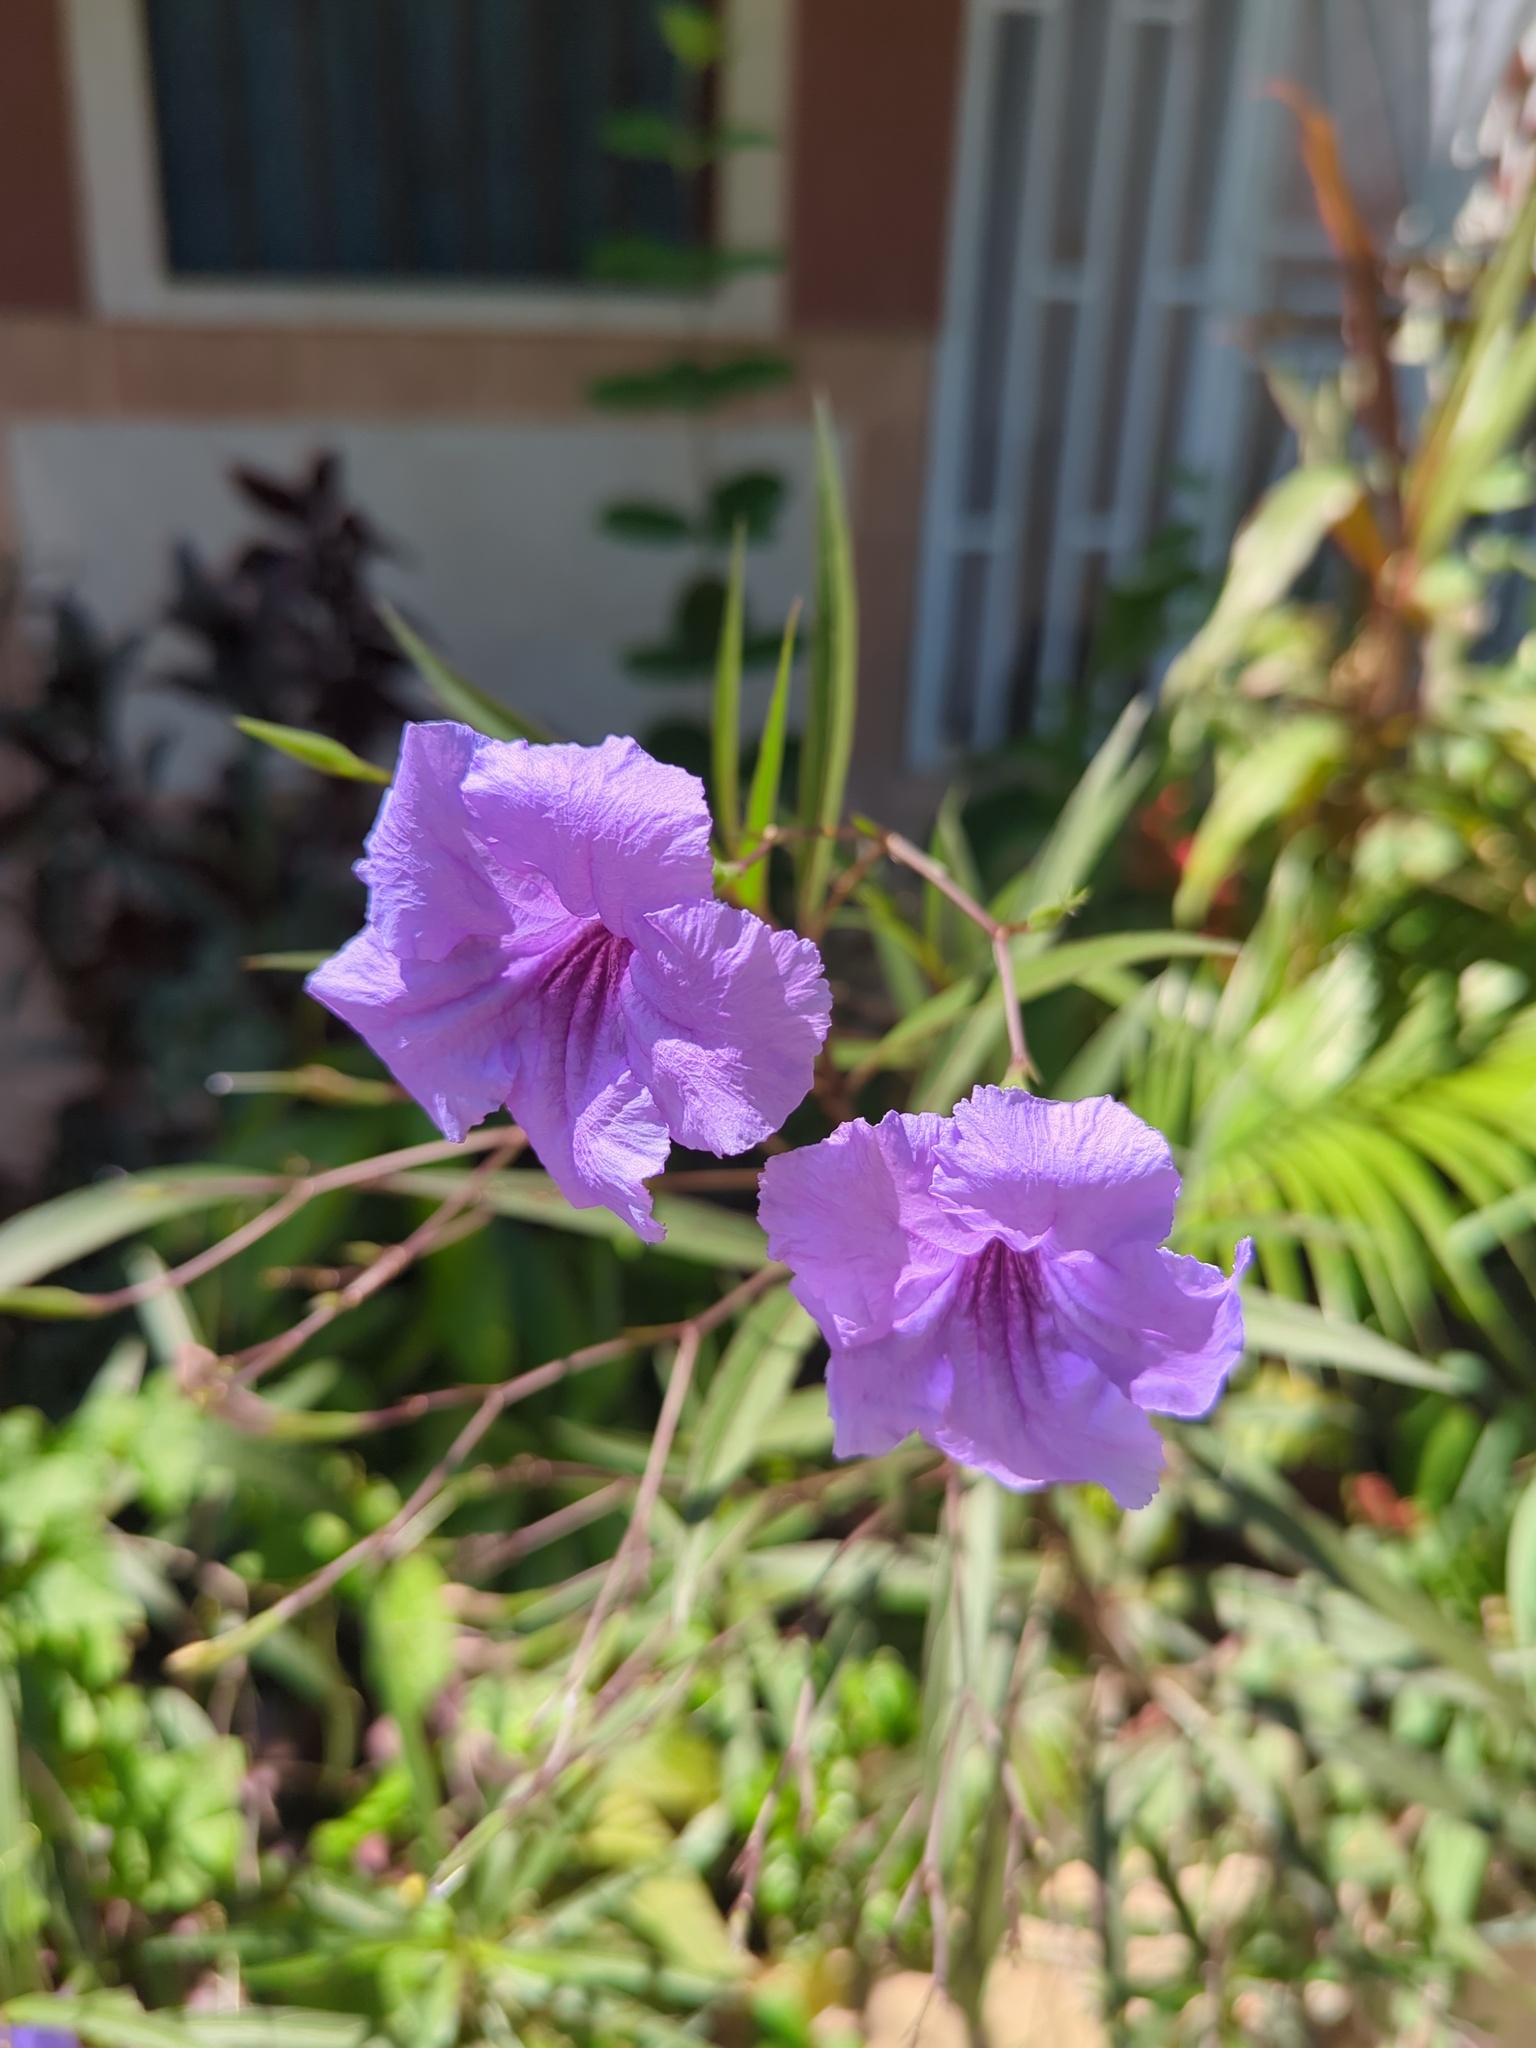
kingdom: Plantae
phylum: Tracheophyta
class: Magnoliopsida
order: Lamiales
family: Acanthaceae
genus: Ruellia
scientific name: Ruellia simplex
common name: Softseed wild petunia
